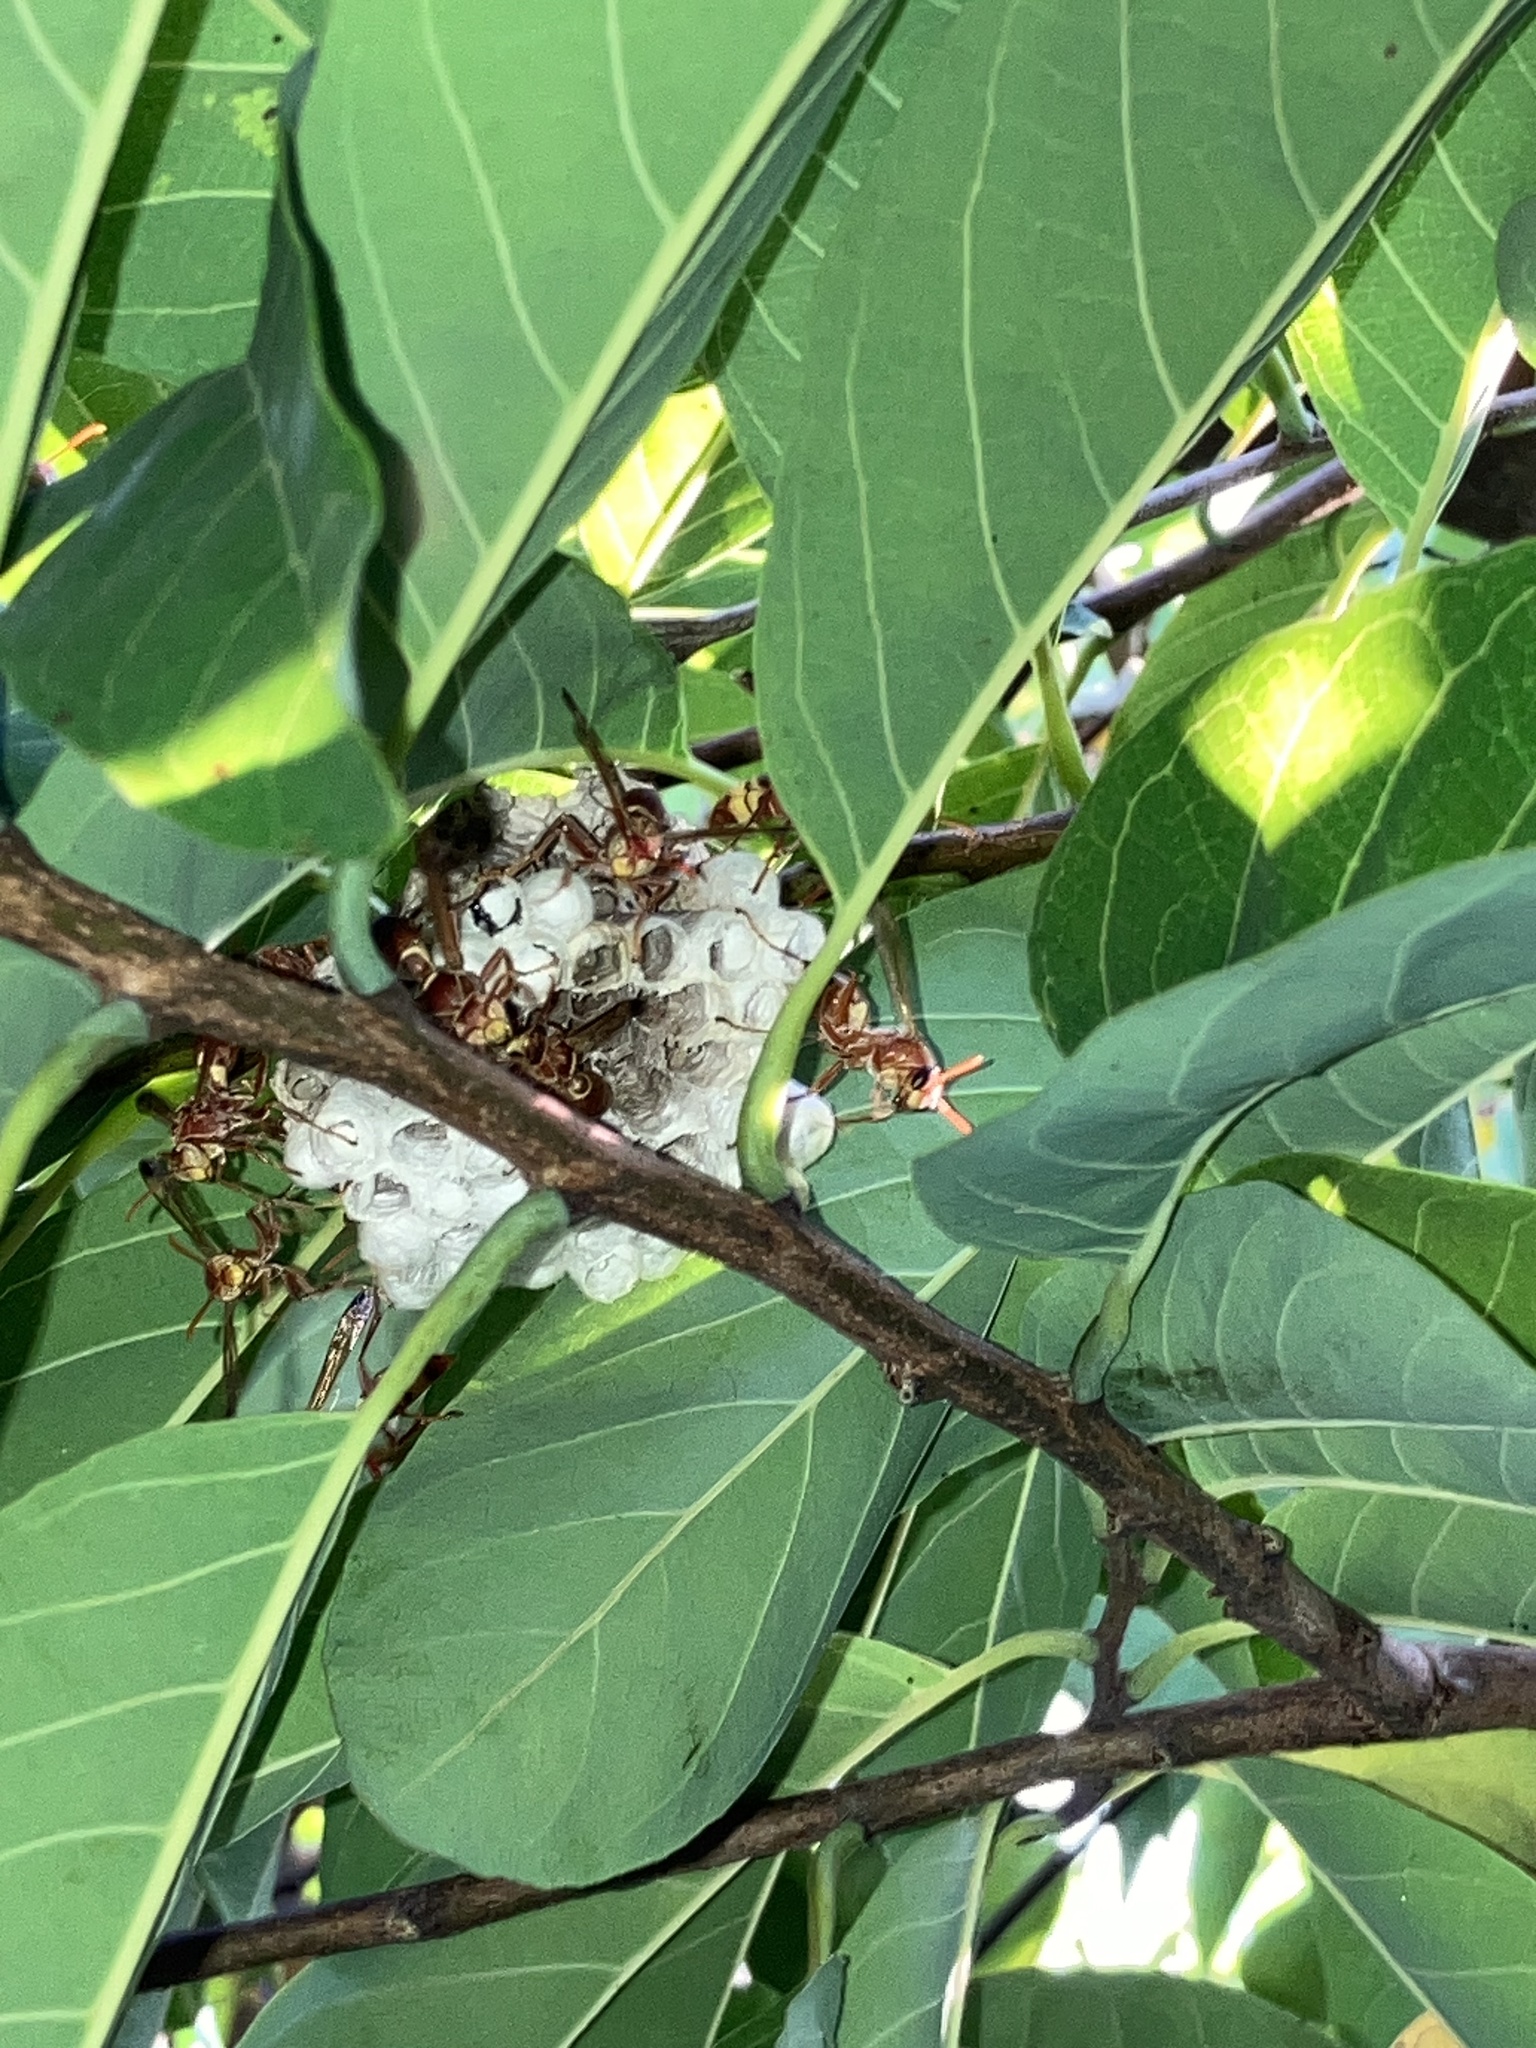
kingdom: Animalia
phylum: Arthropoda
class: Insecta
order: Hymenoptera
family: Eumenidae
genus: Polistes
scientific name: Polistes stigma
